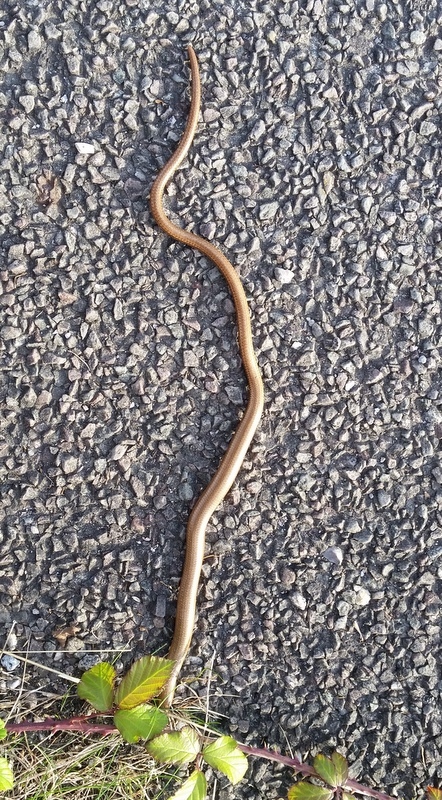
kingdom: Animalia
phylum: Chordata
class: Squamata
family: Anguidae
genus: Anguis
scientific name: Anguis fragilis
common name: Slow worm
